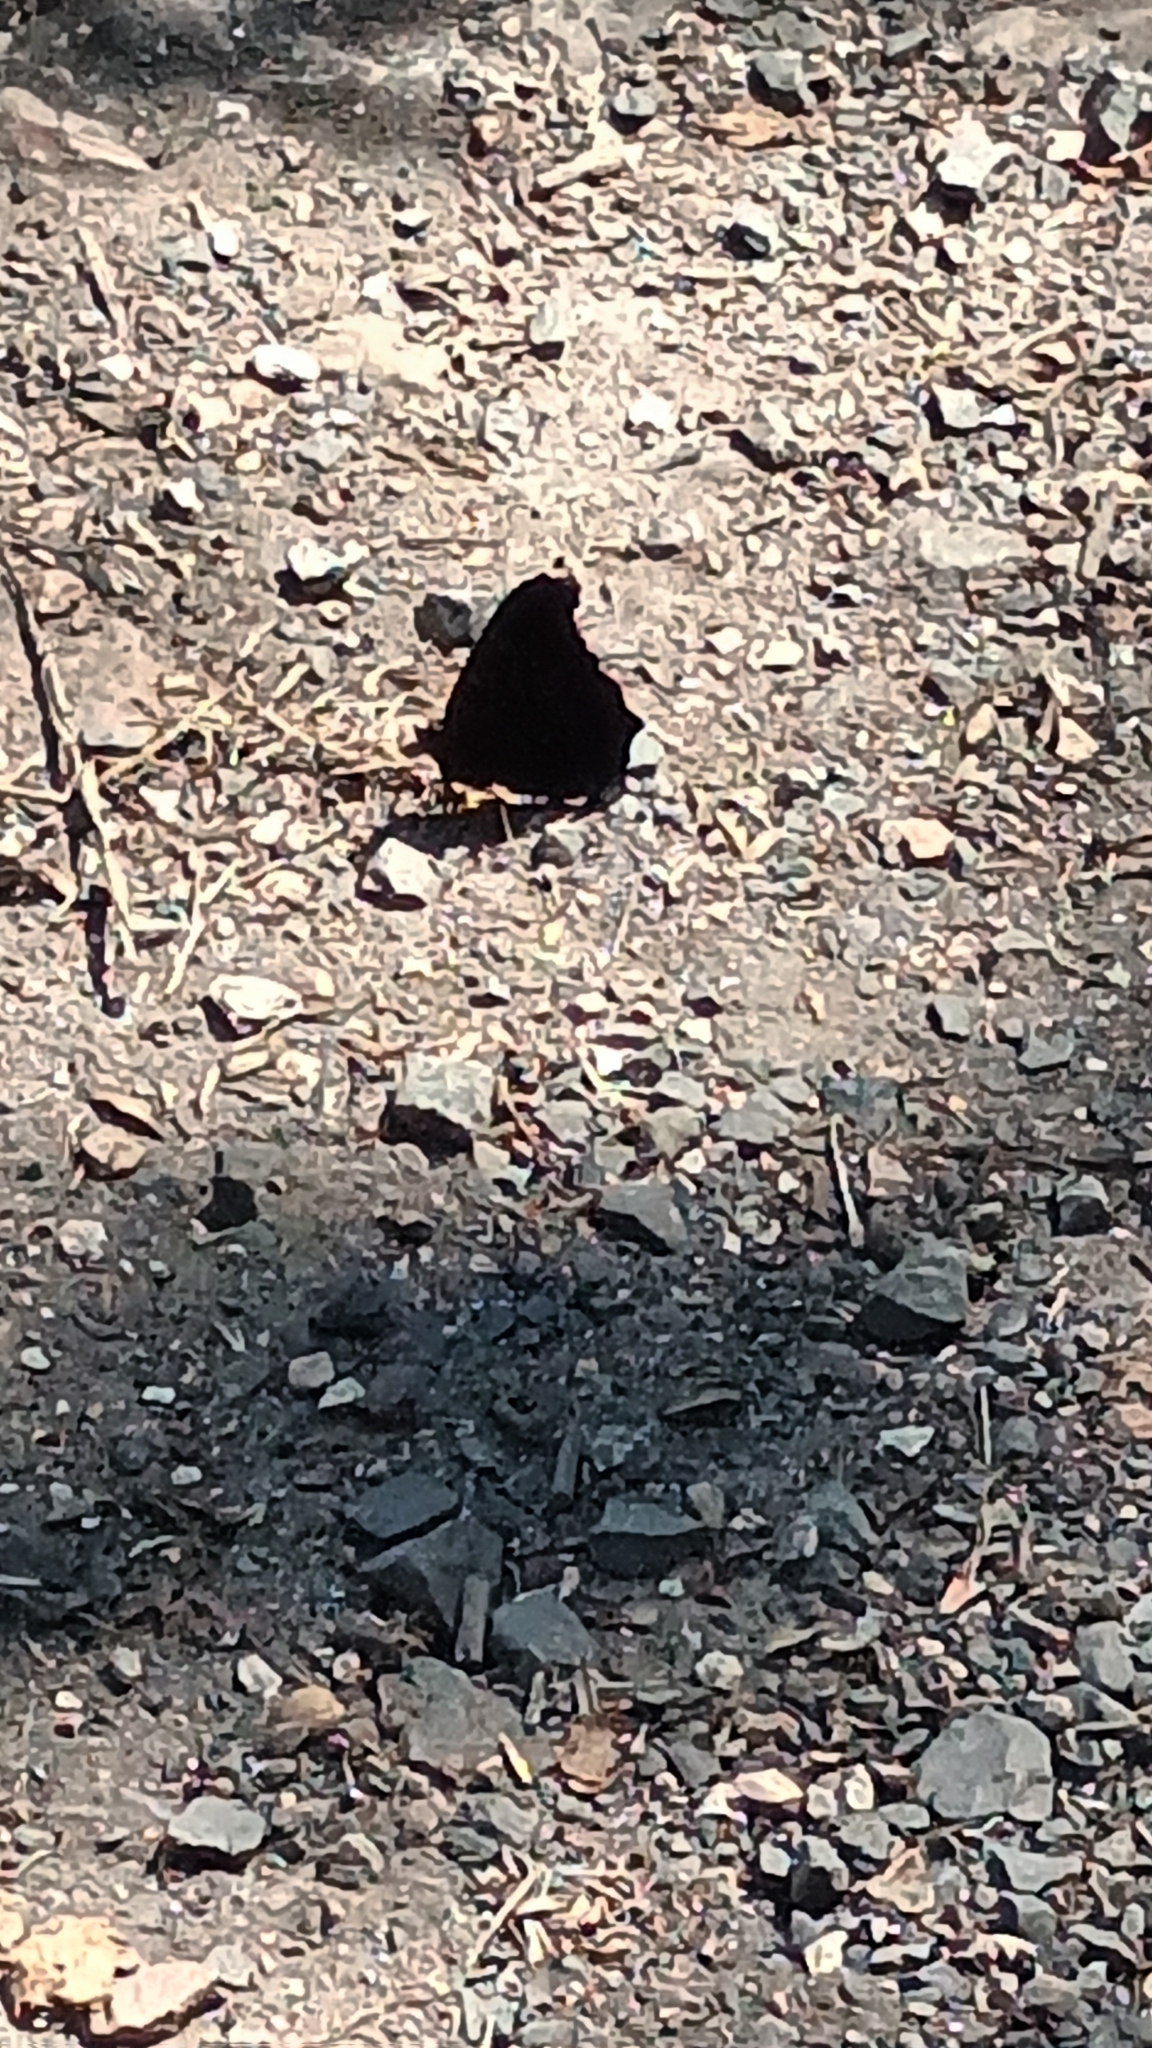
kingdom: Animalia
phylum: Arthropoda
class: Insecta
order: Lepidoptera
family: Nymphalidae
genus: Aglais
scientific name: Aglais io
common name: Peacock
